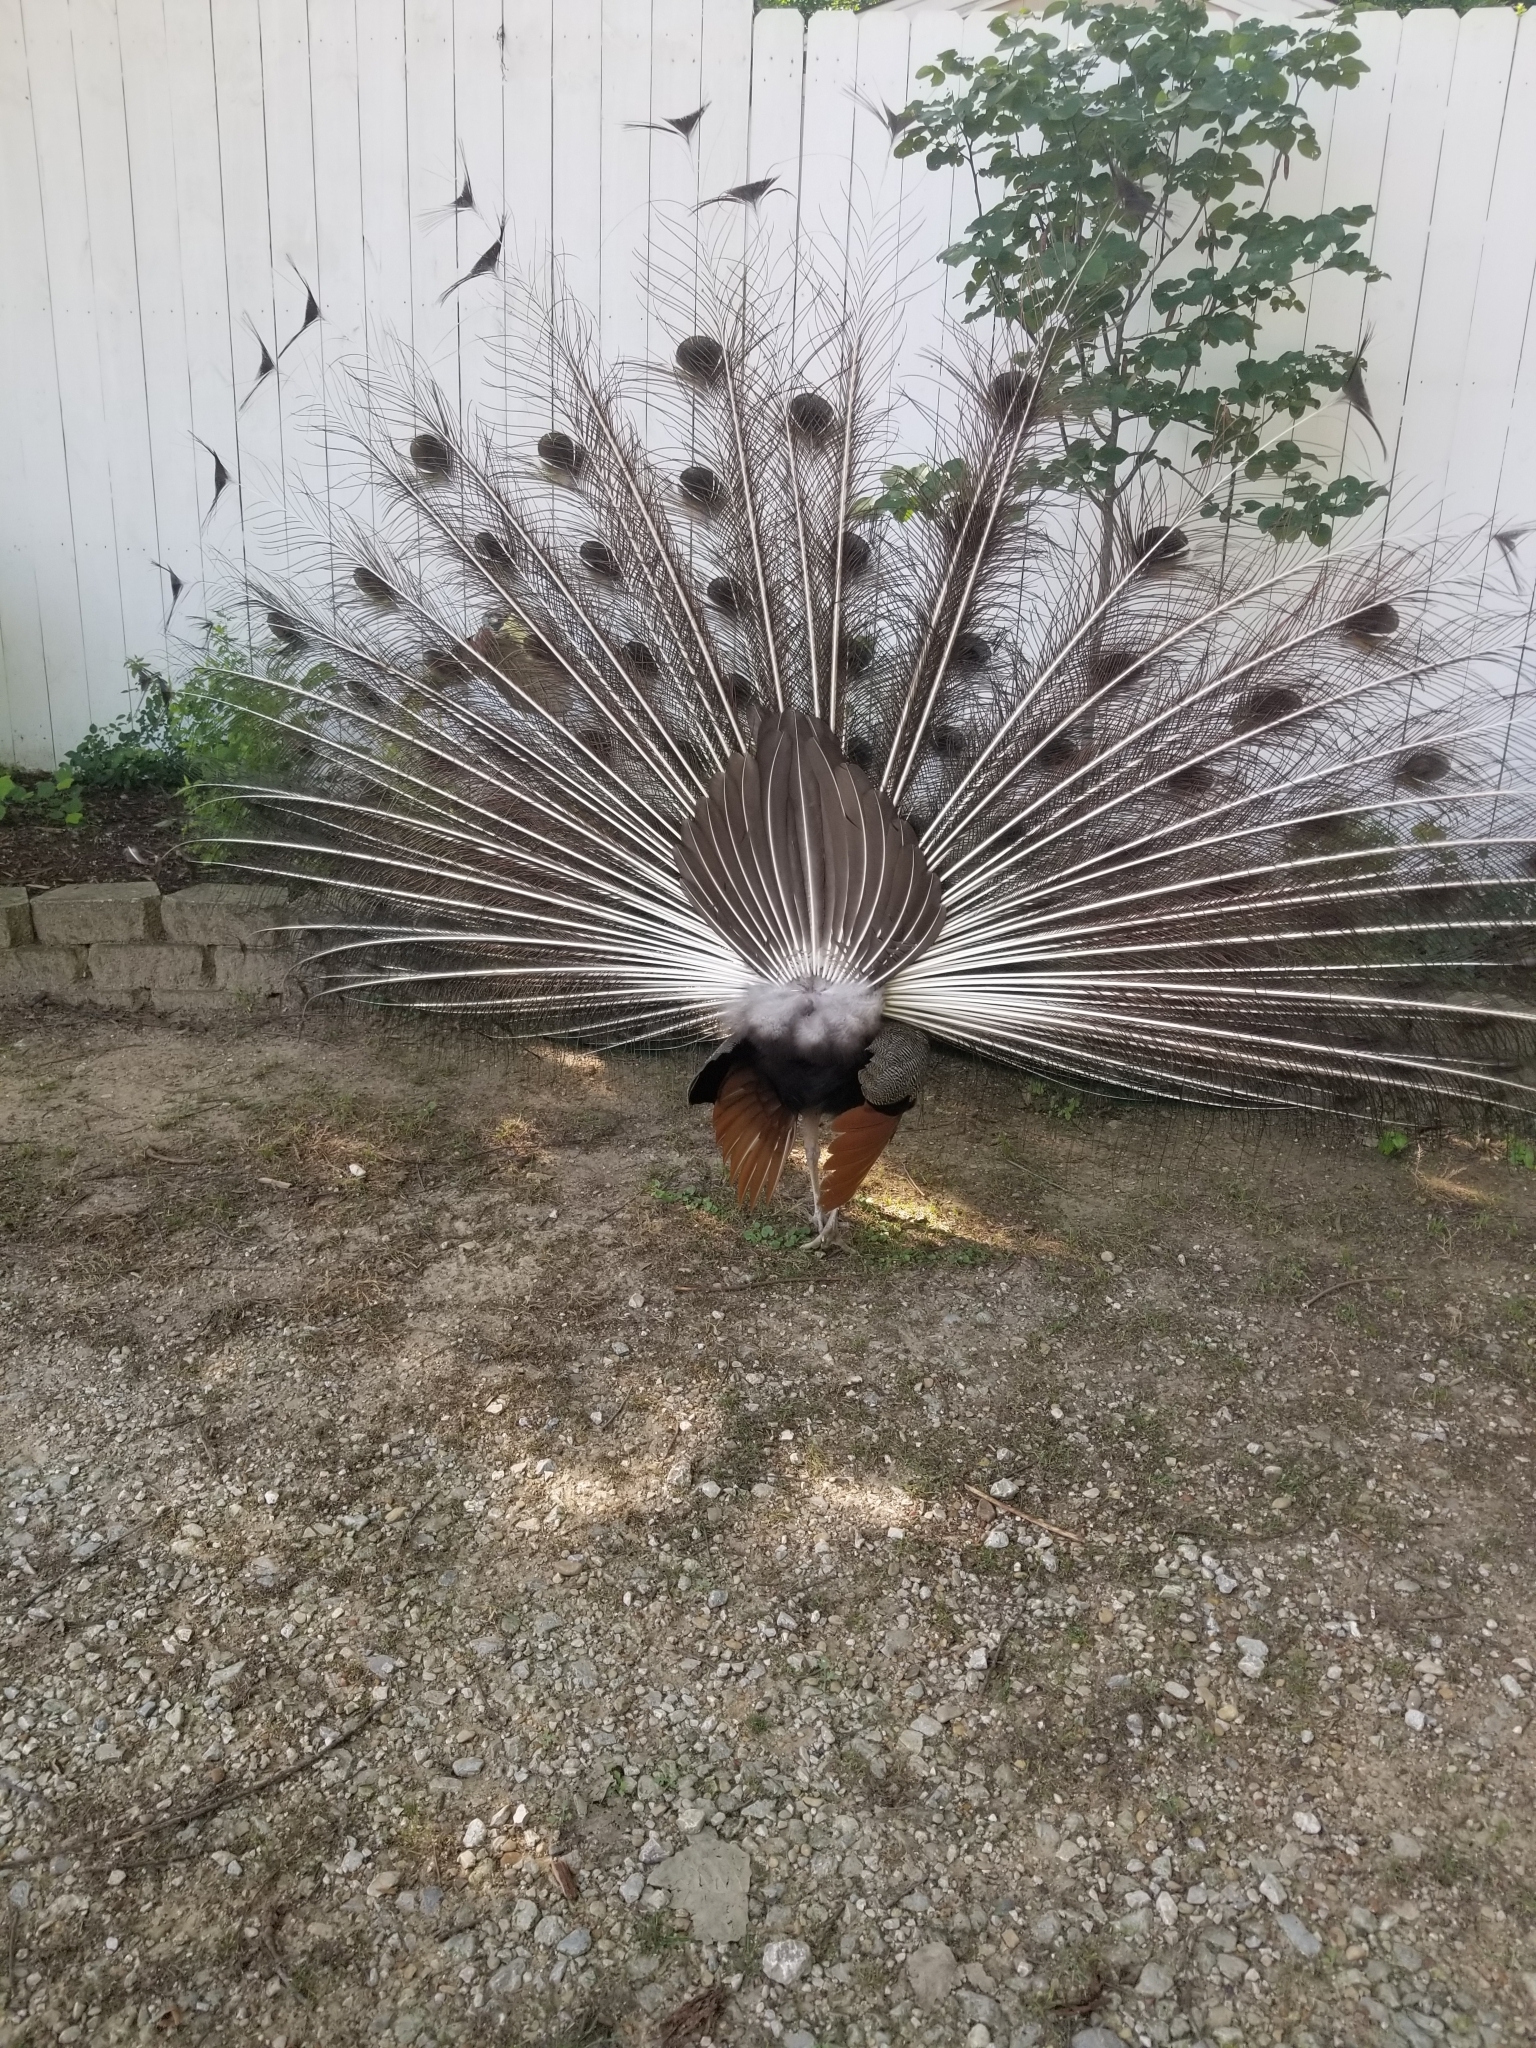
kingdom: Animalia
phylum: Chordata
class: Aves
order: Galliformes
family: Phasianidae
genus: Pavo
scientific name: Pavo cristatus
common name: Indian peafowl
